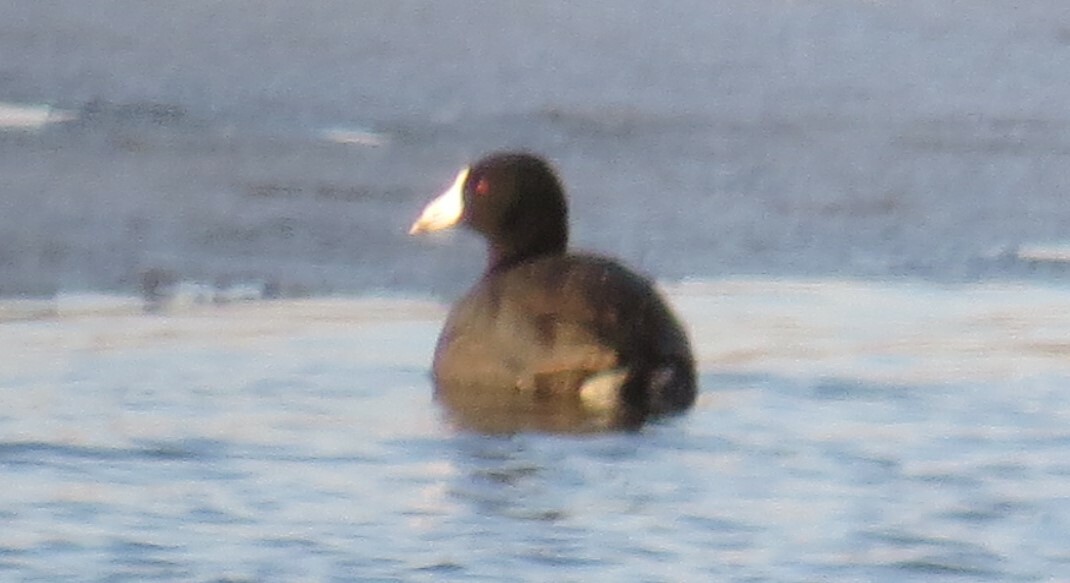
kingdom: Animalia
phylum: Chordata
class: Aves
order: Gruiformes
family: Rallidae
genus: Fulica
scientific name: Fulica americana
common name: American coot
